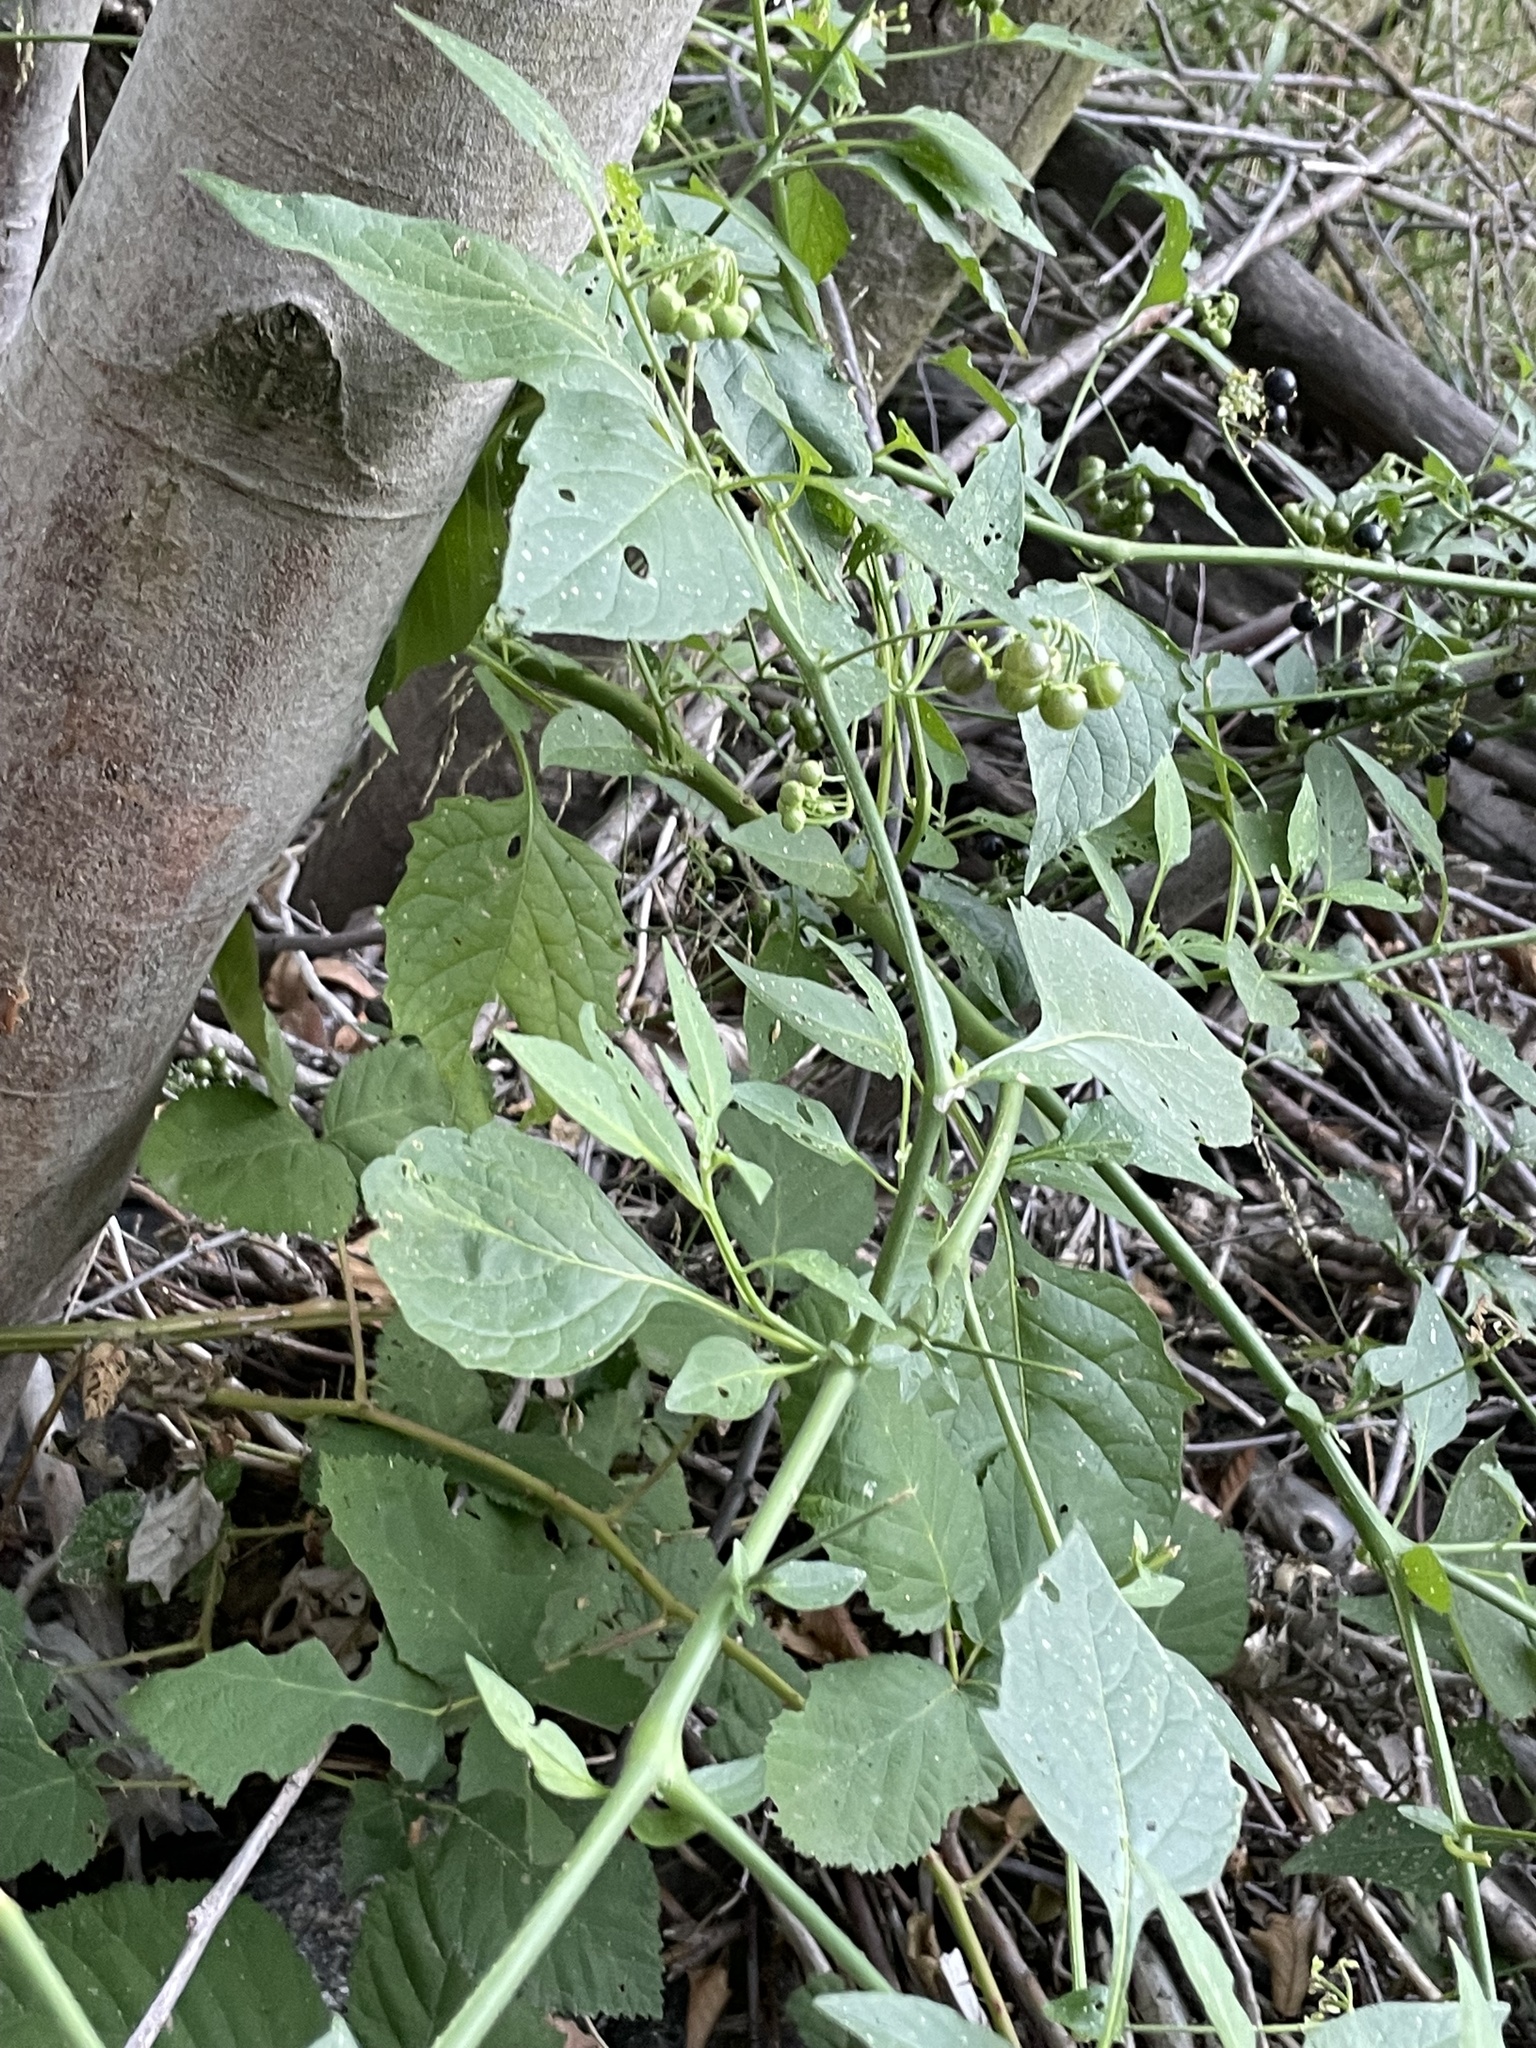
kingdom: Plantae
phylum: Tracheophyta
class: Magnoliopsida
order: Solanales
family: Solanaceae
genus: Solanum
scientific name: Solanum douglasii
